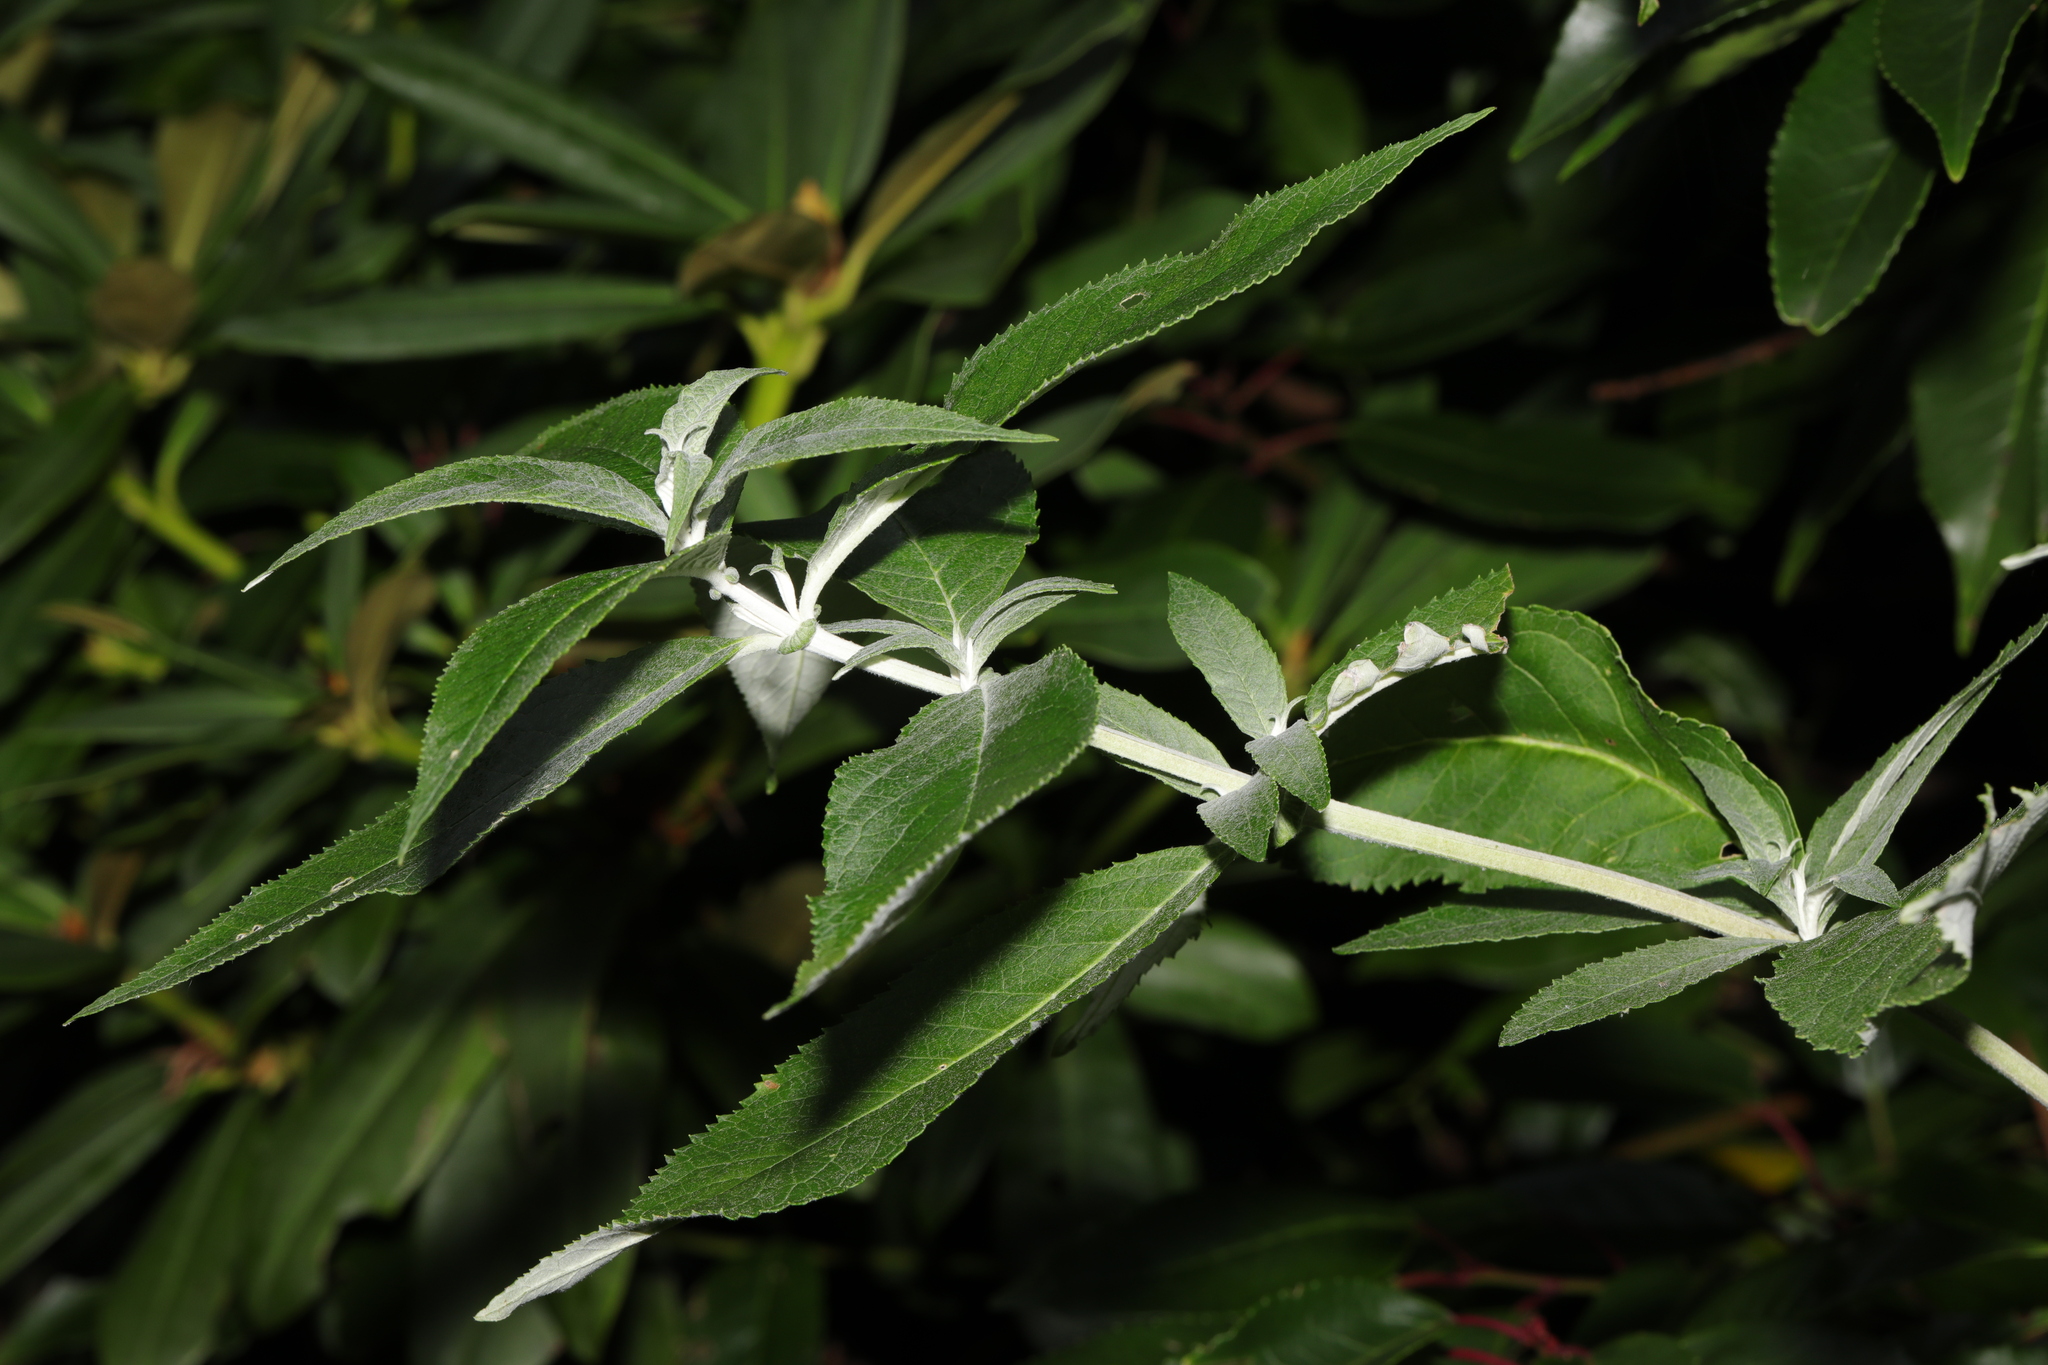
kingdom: Plantae
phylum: Tracheophyta
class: Magnoliopsida
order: Lamiales
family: Scrophulariaceae
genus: Buddleja
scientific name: Buddleja davidii
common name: Butterfly-bush
